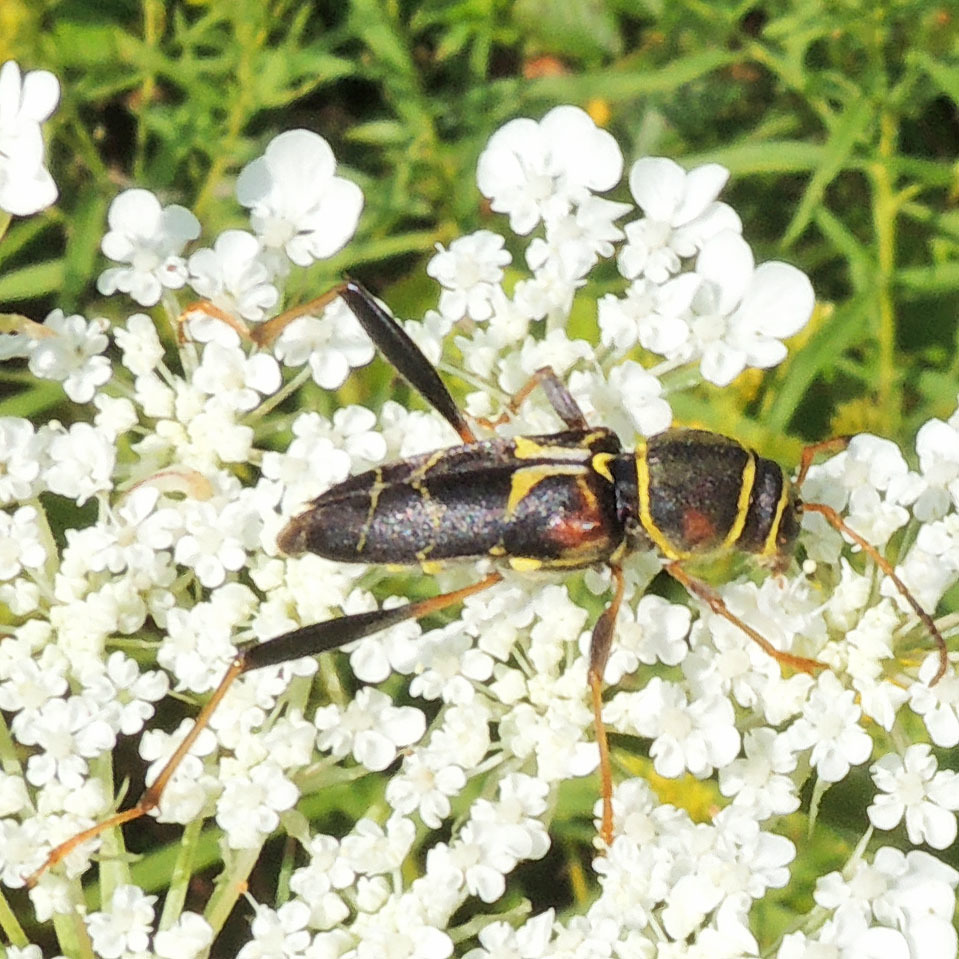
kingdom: Animalia
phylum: Arthropoda
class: Insecta
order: Coleoptera
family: Cerambycidae
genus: Neoclytus
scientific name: Neoclytus mucronatus
